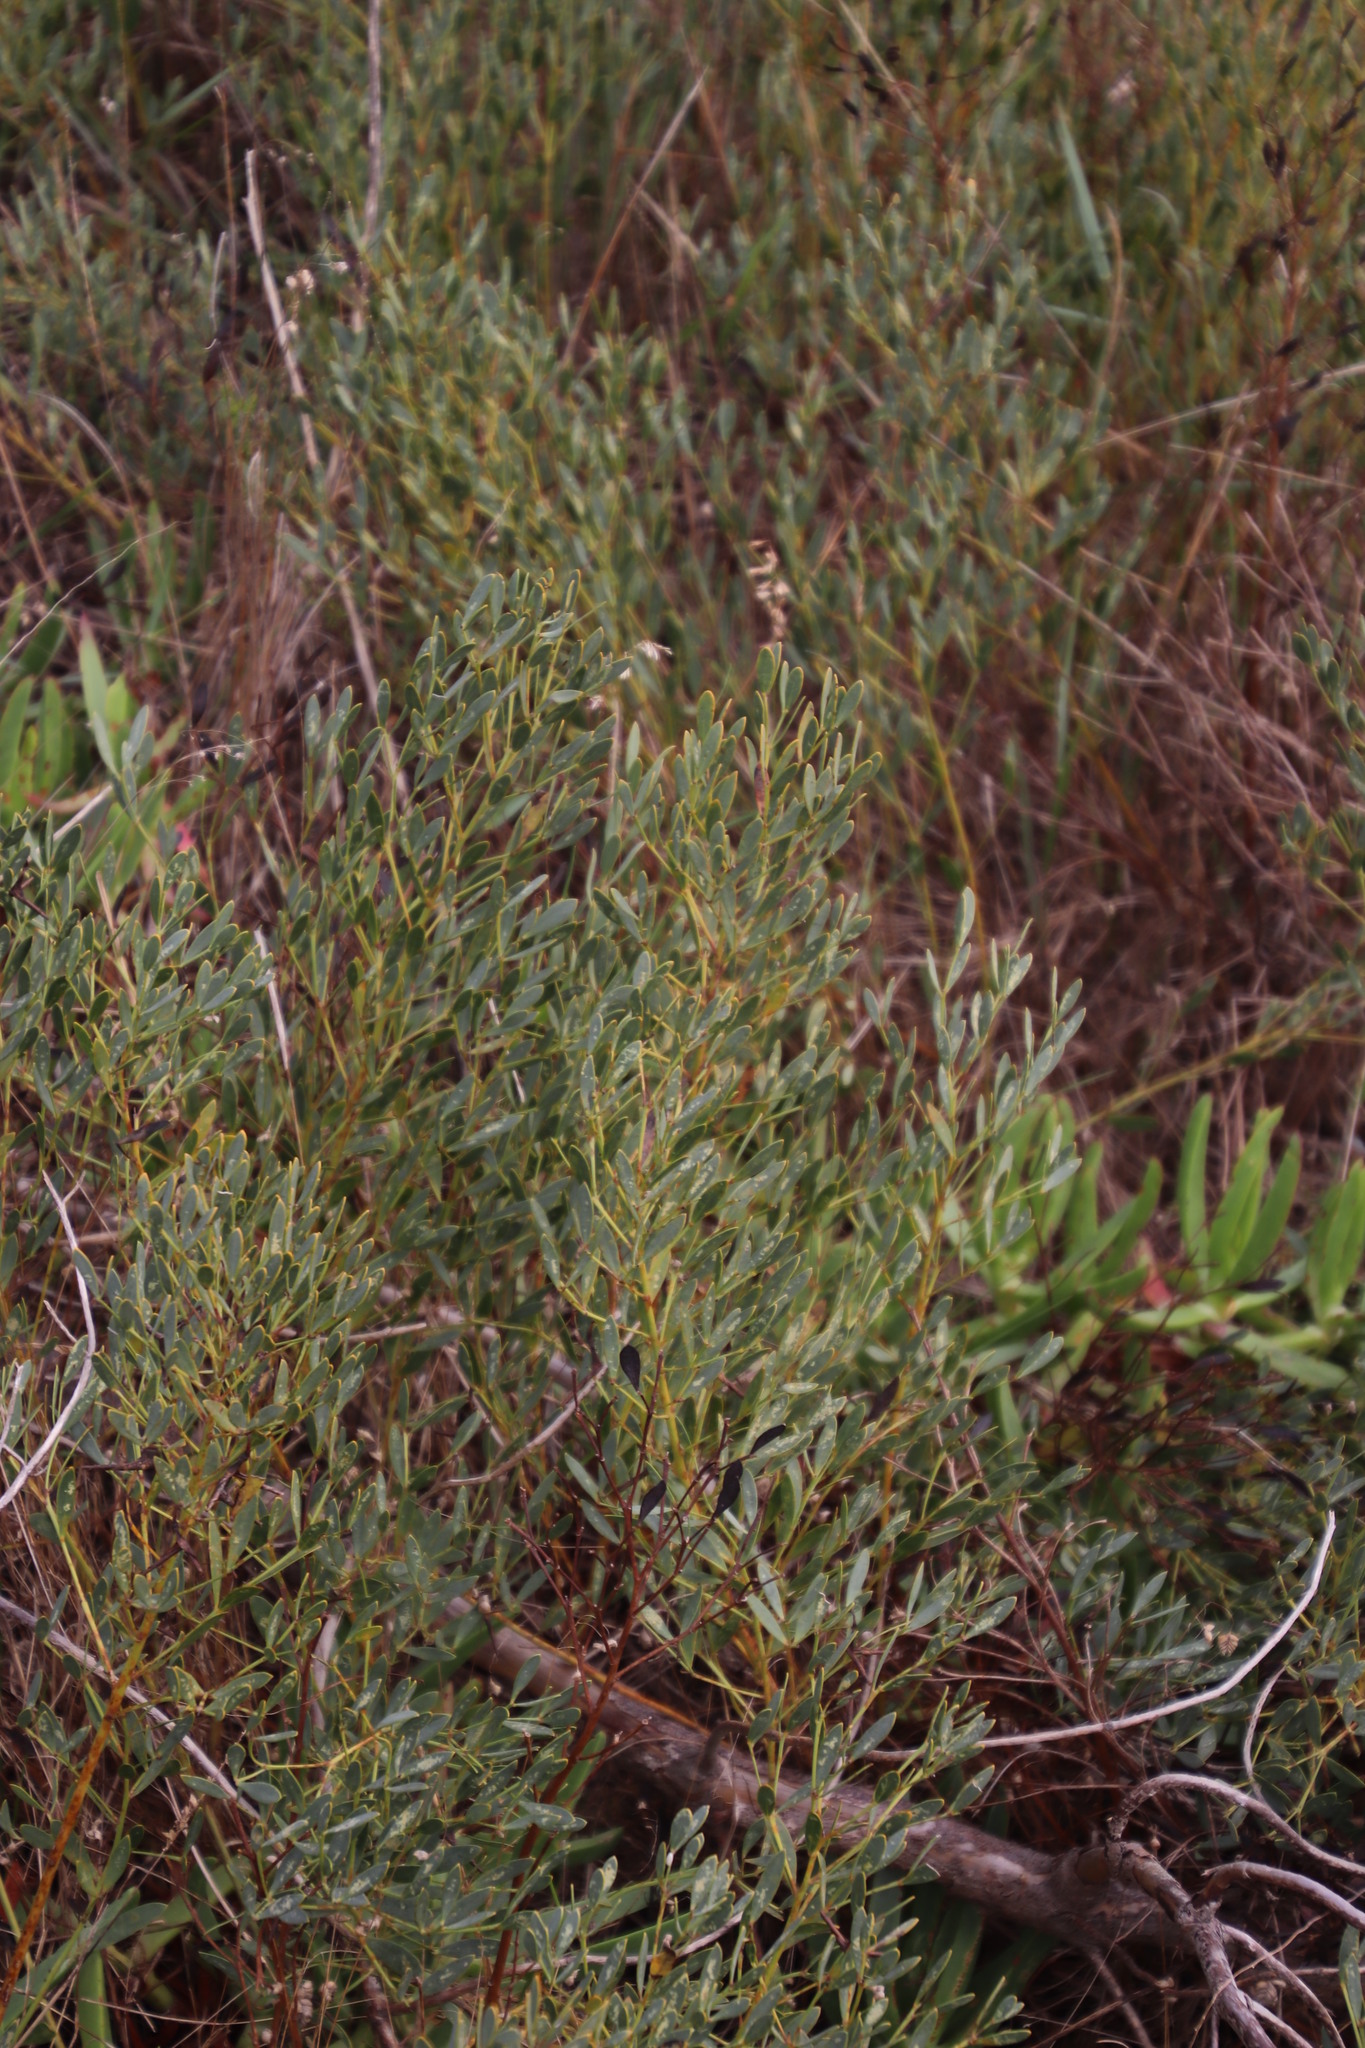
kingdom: Plantae
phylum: Tracheophyta
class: Magnoliopsida
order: Fabales
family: Fabaceae
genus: Rafnia
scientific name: Rafnia capensis
